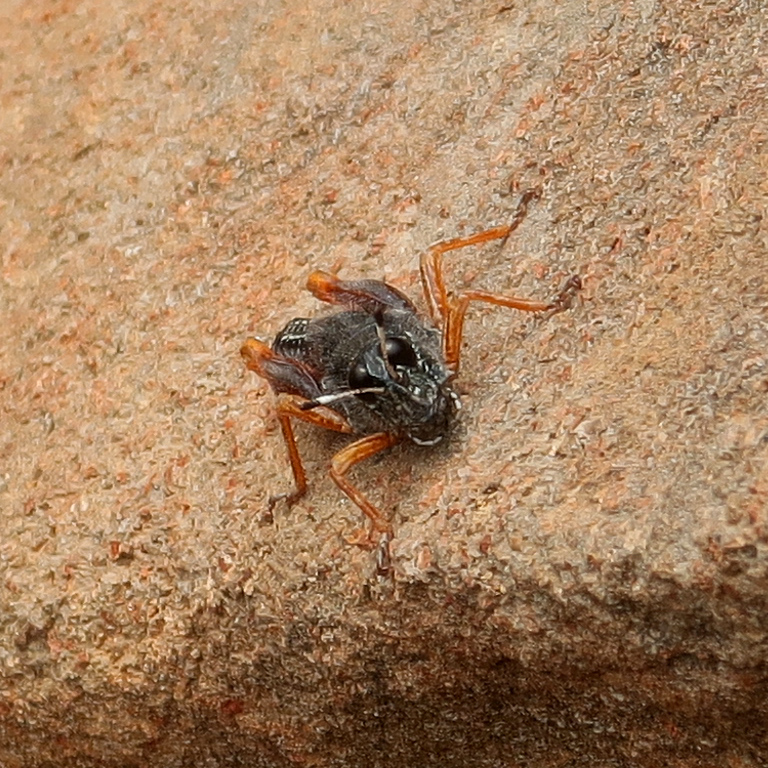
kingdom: Animalia
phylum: Arthropoda
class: Insecta
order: Orthoptera
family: Acrididae
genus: Tasmanalpina
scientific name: Tasmanalpina clavata
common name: Tasmanian velvet grasshopper
